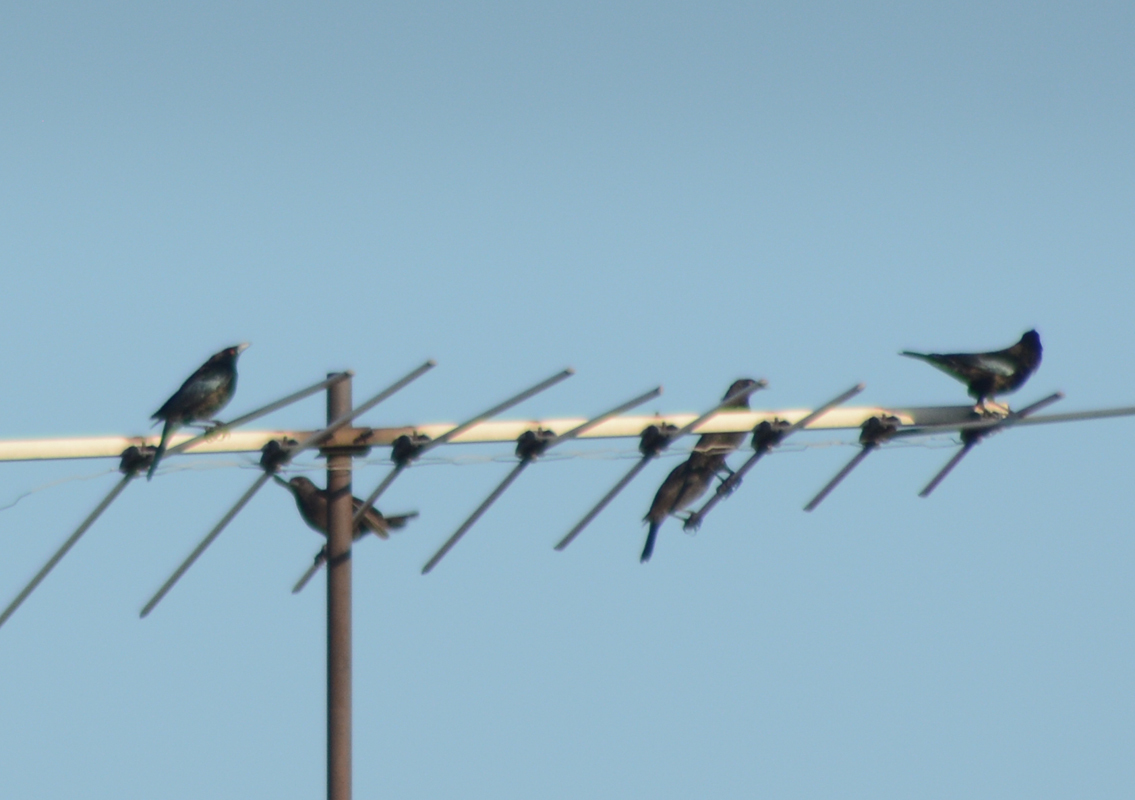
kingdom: Animalia
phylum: Chordata
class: Aves
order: Passeriformes
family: Icteridae
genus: Molothrus
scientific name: Molothrus aeneus
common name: Bronzed cowbird
